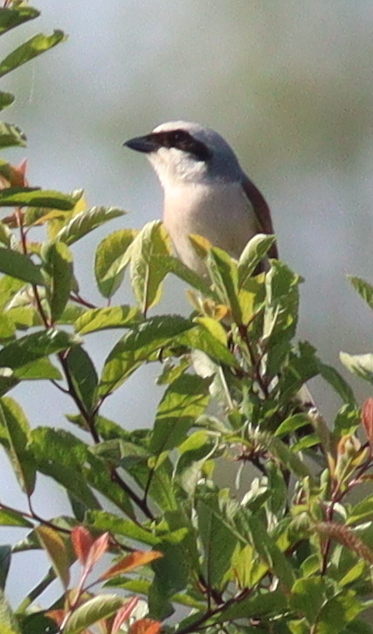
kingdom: Animalia
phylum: Chordata
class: Aves
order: Passeriformes
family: Laniidae
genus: Lanius
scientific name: Lanius collurio
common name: Red-backed shrike
